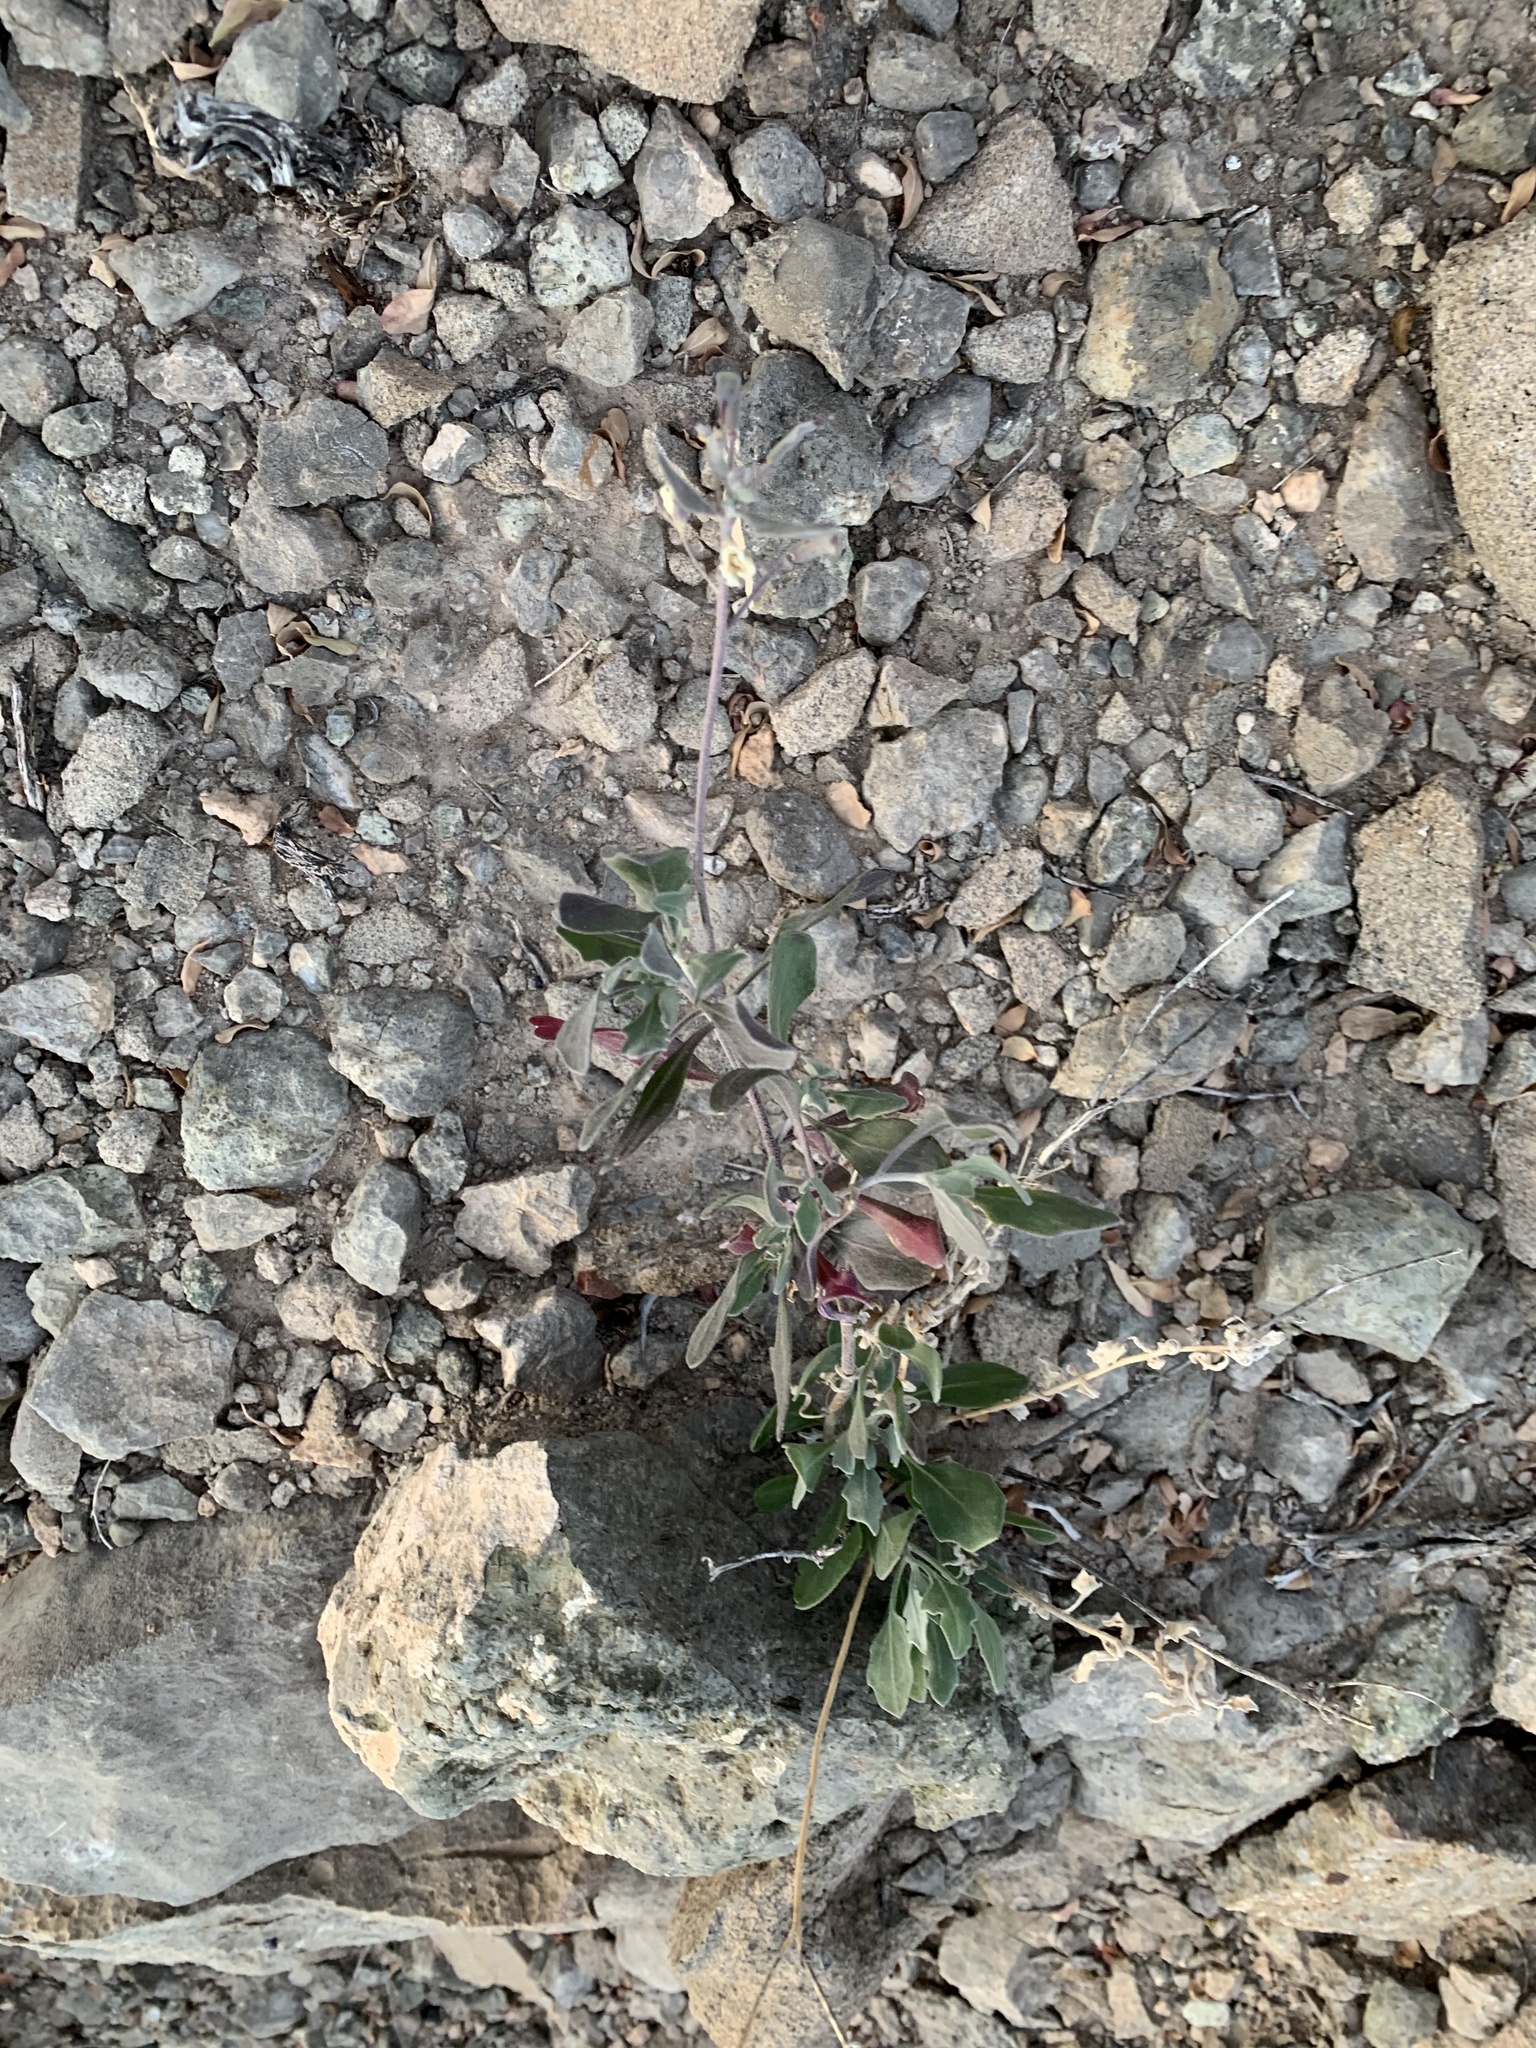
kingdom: Plantae
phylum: Tracheophyta
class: Magnoliopsida
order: Brassicales
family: Brassicaceae
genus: Nerisyrenia
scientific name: Nerisyrenia camporum
